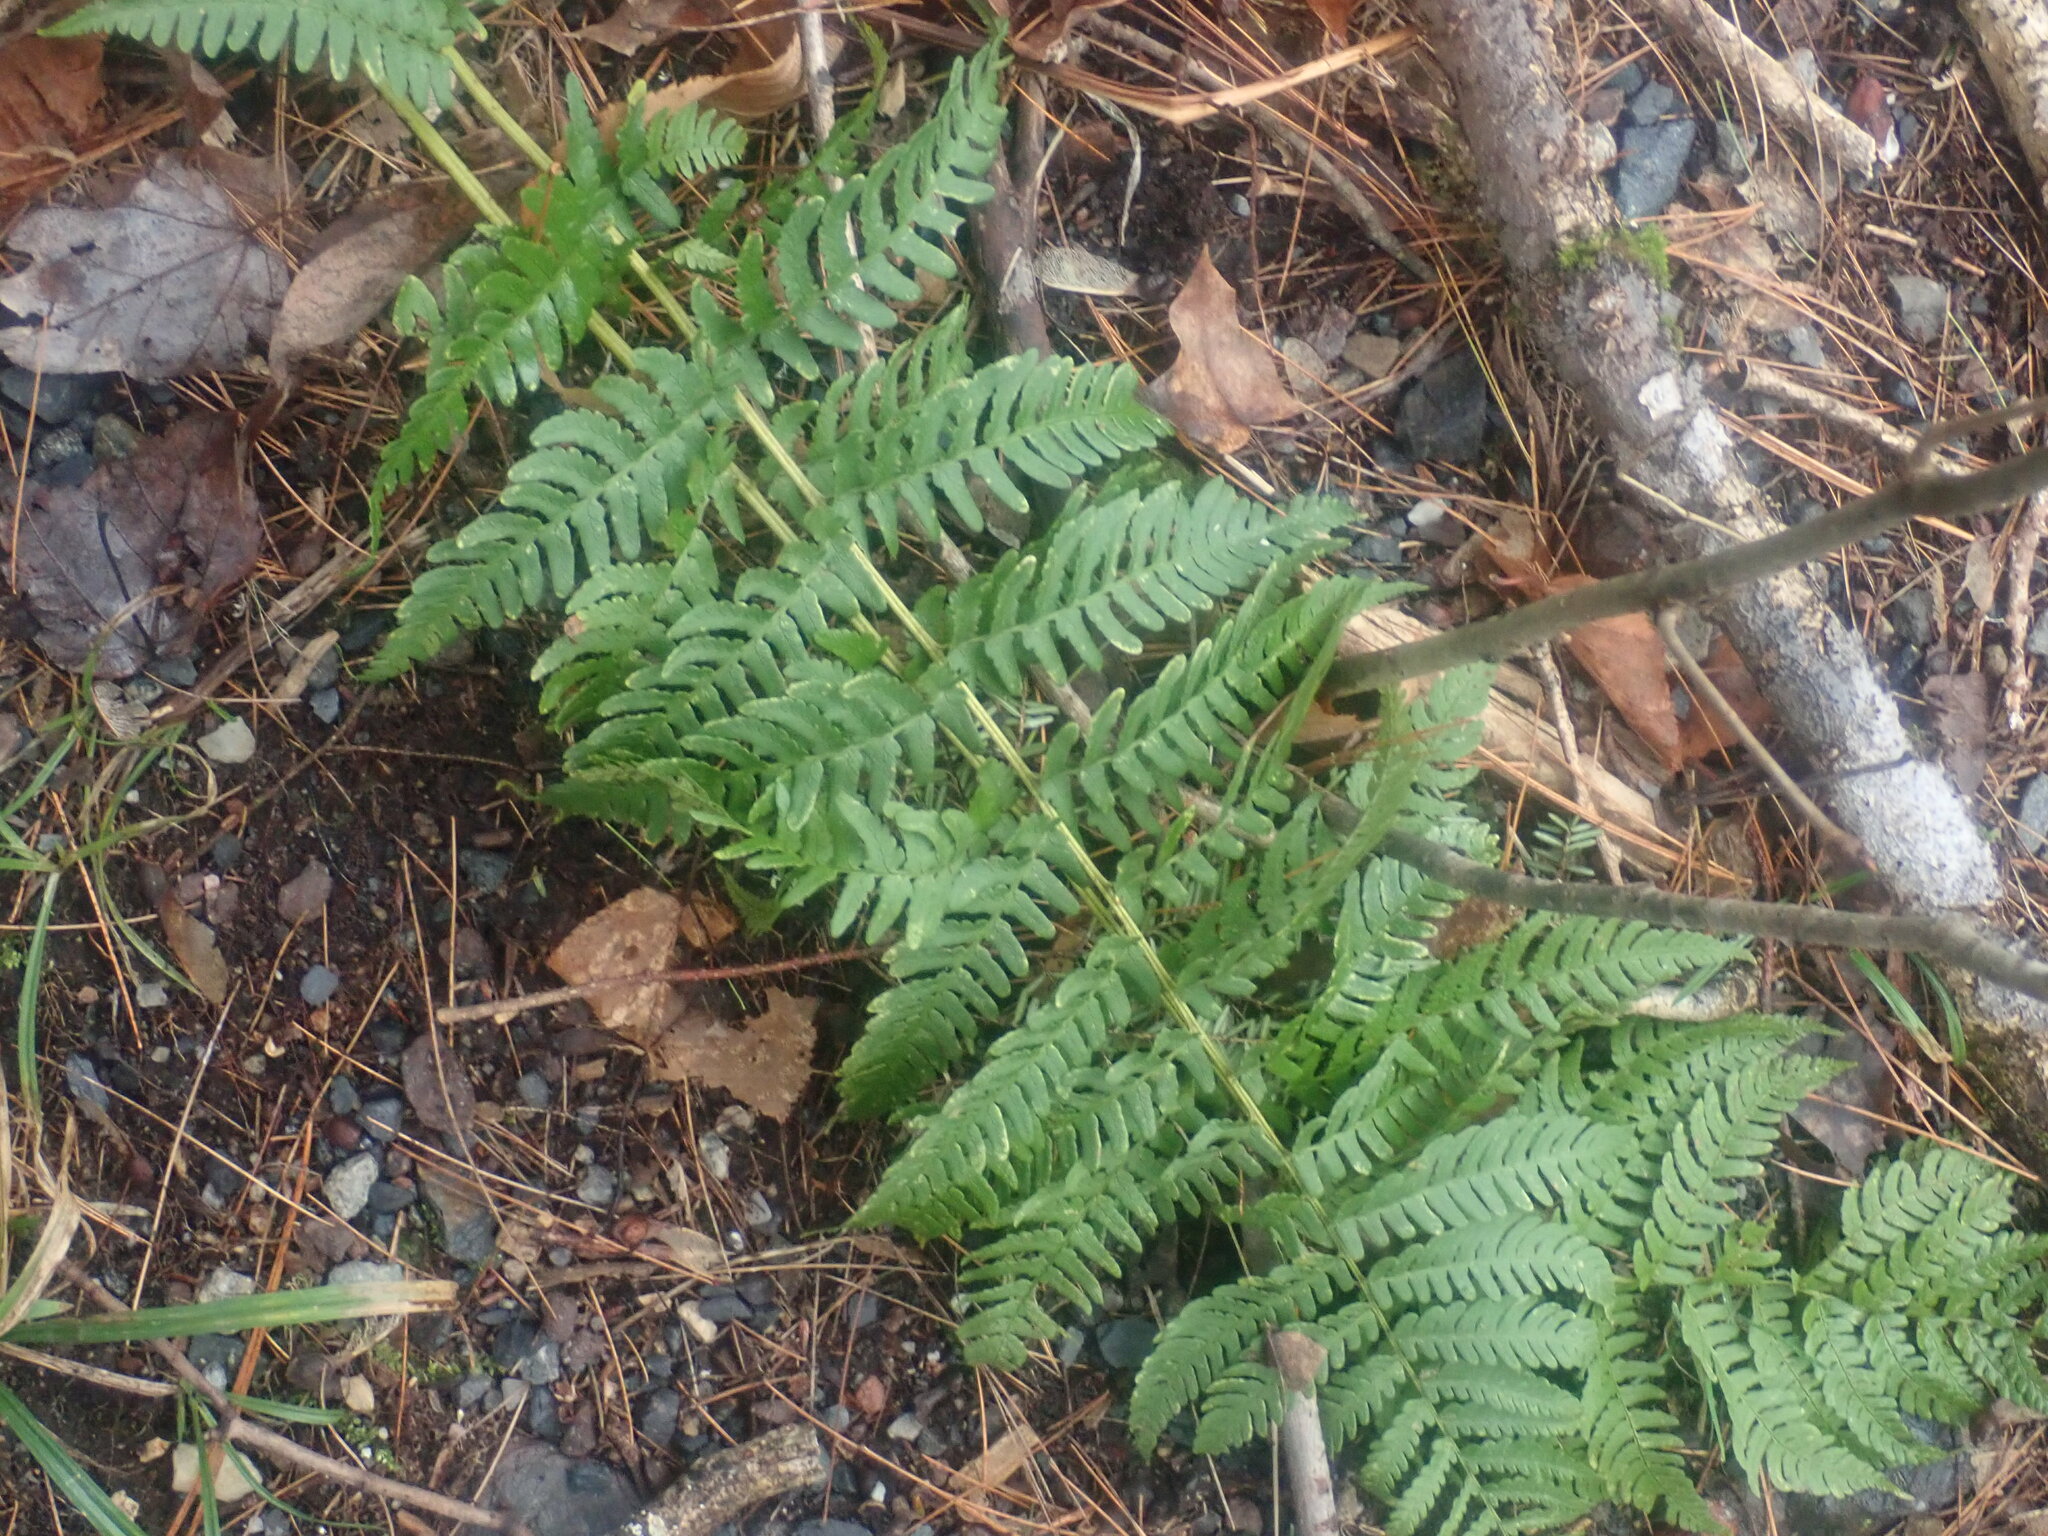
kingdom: Plantae
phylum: Tracheophyta
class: Polypodiopsida
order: Polypodiales
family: Dryopteridaceae
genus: Dryopteris
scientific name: Dryopteris marginalis
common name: Marginal wood fern
